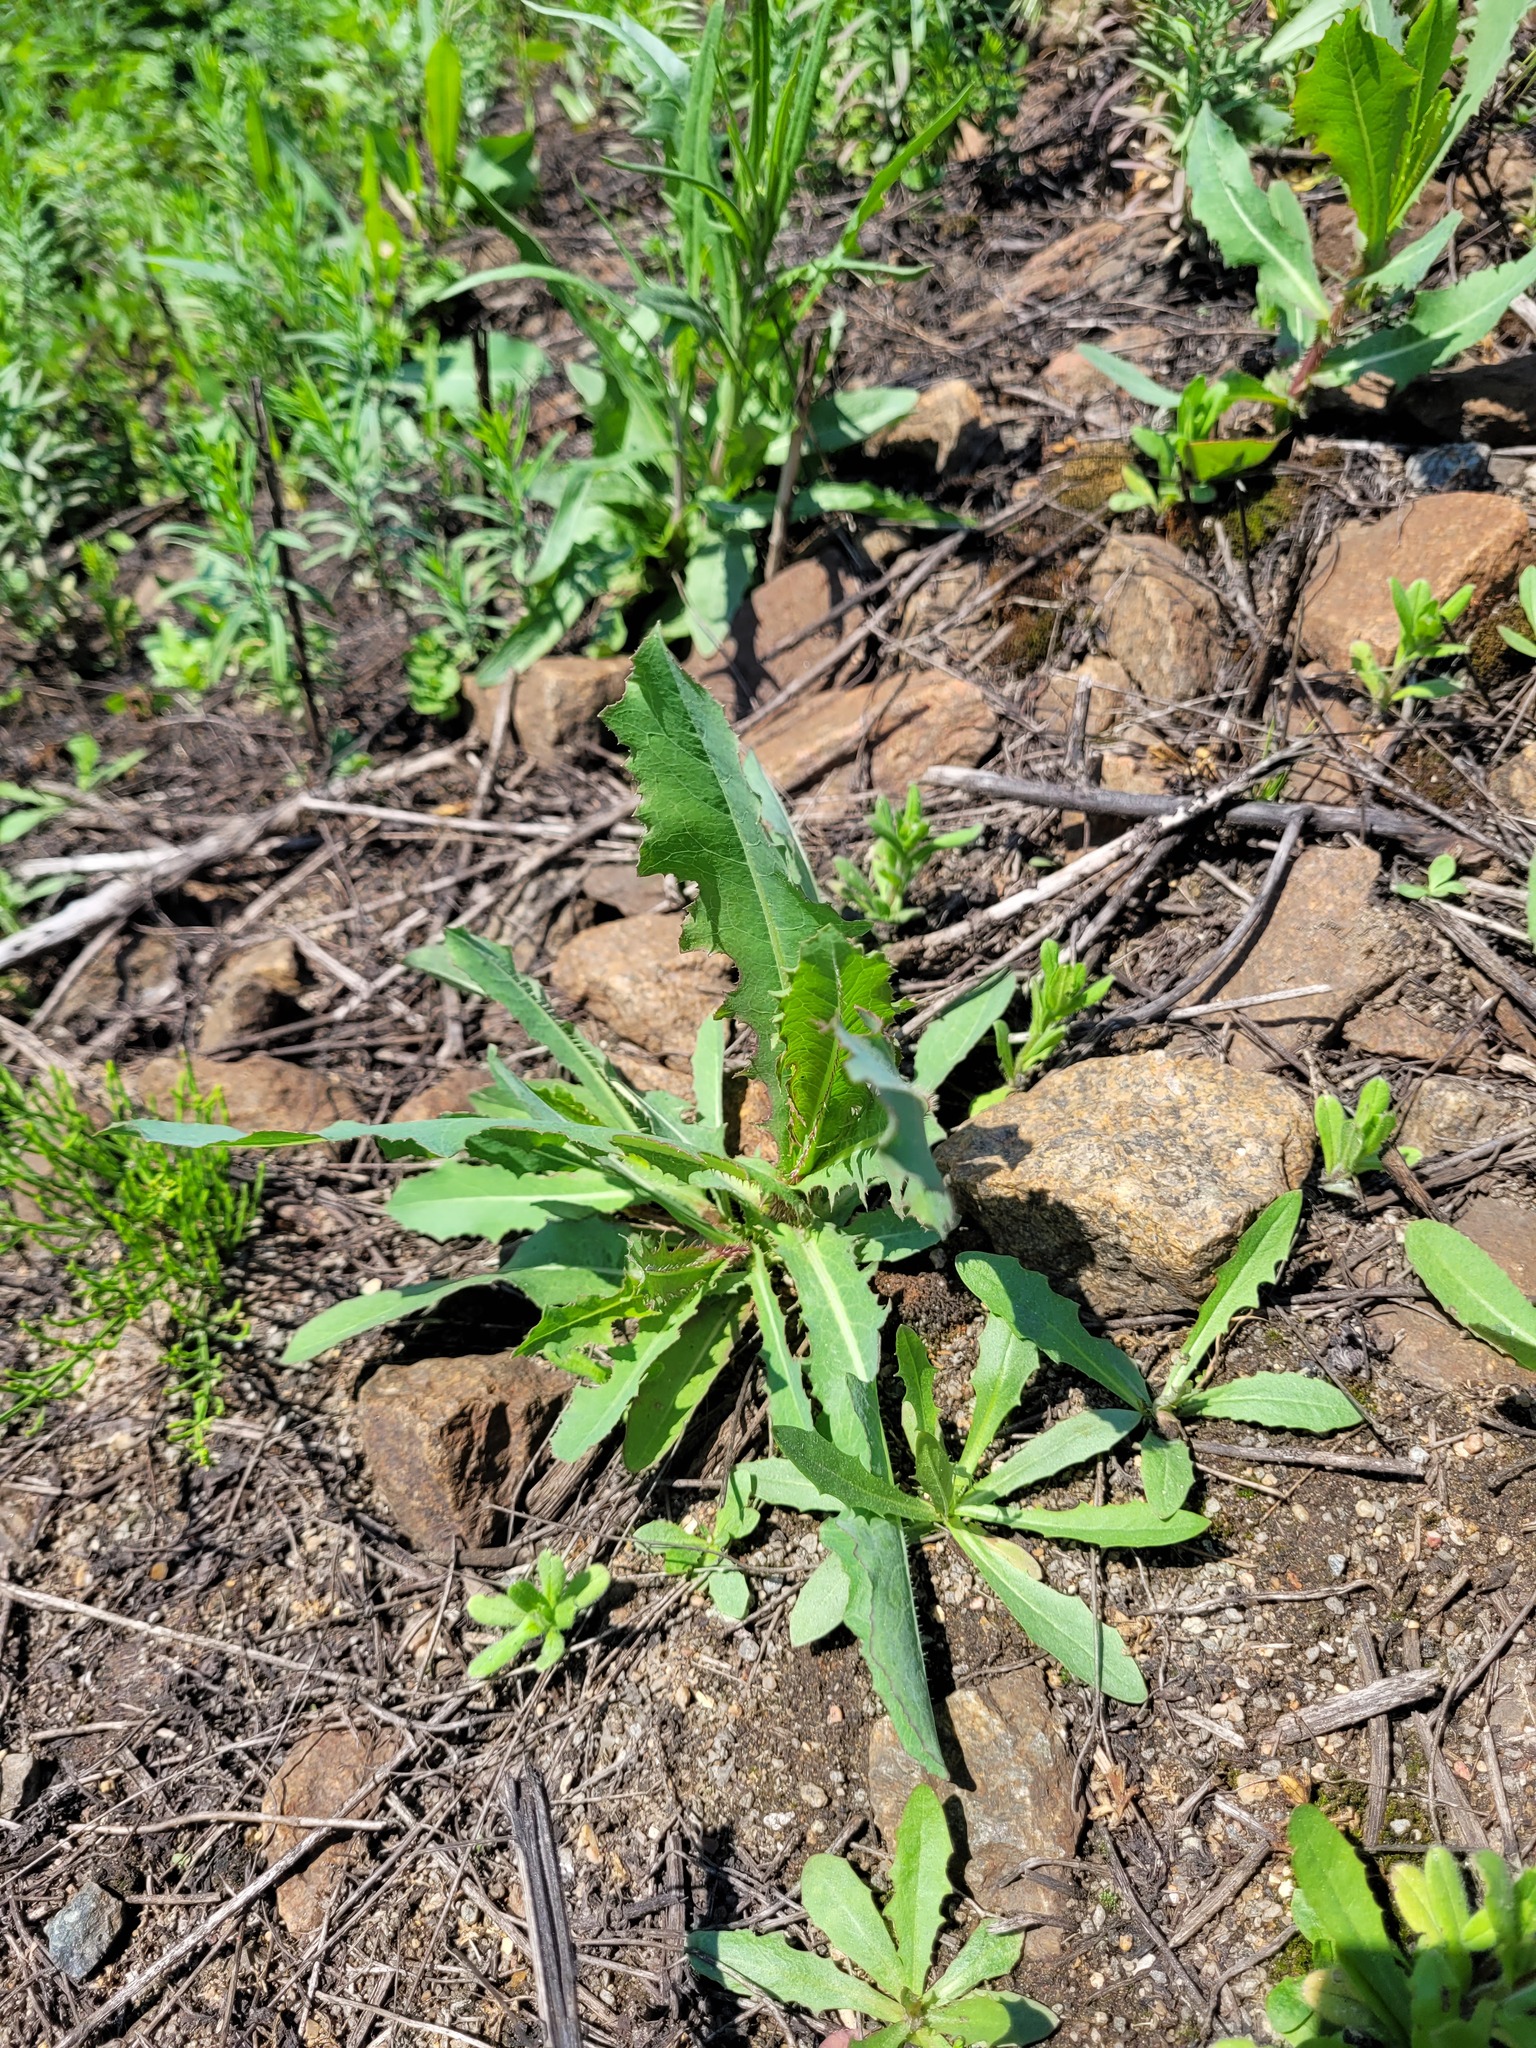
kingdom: Plantae
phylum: Tracheophyta
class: Magnoliopsida
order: Asterales
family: Asteraceae
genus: Lactuca
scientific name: Lactuca serriola
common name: Prickly lettuce
